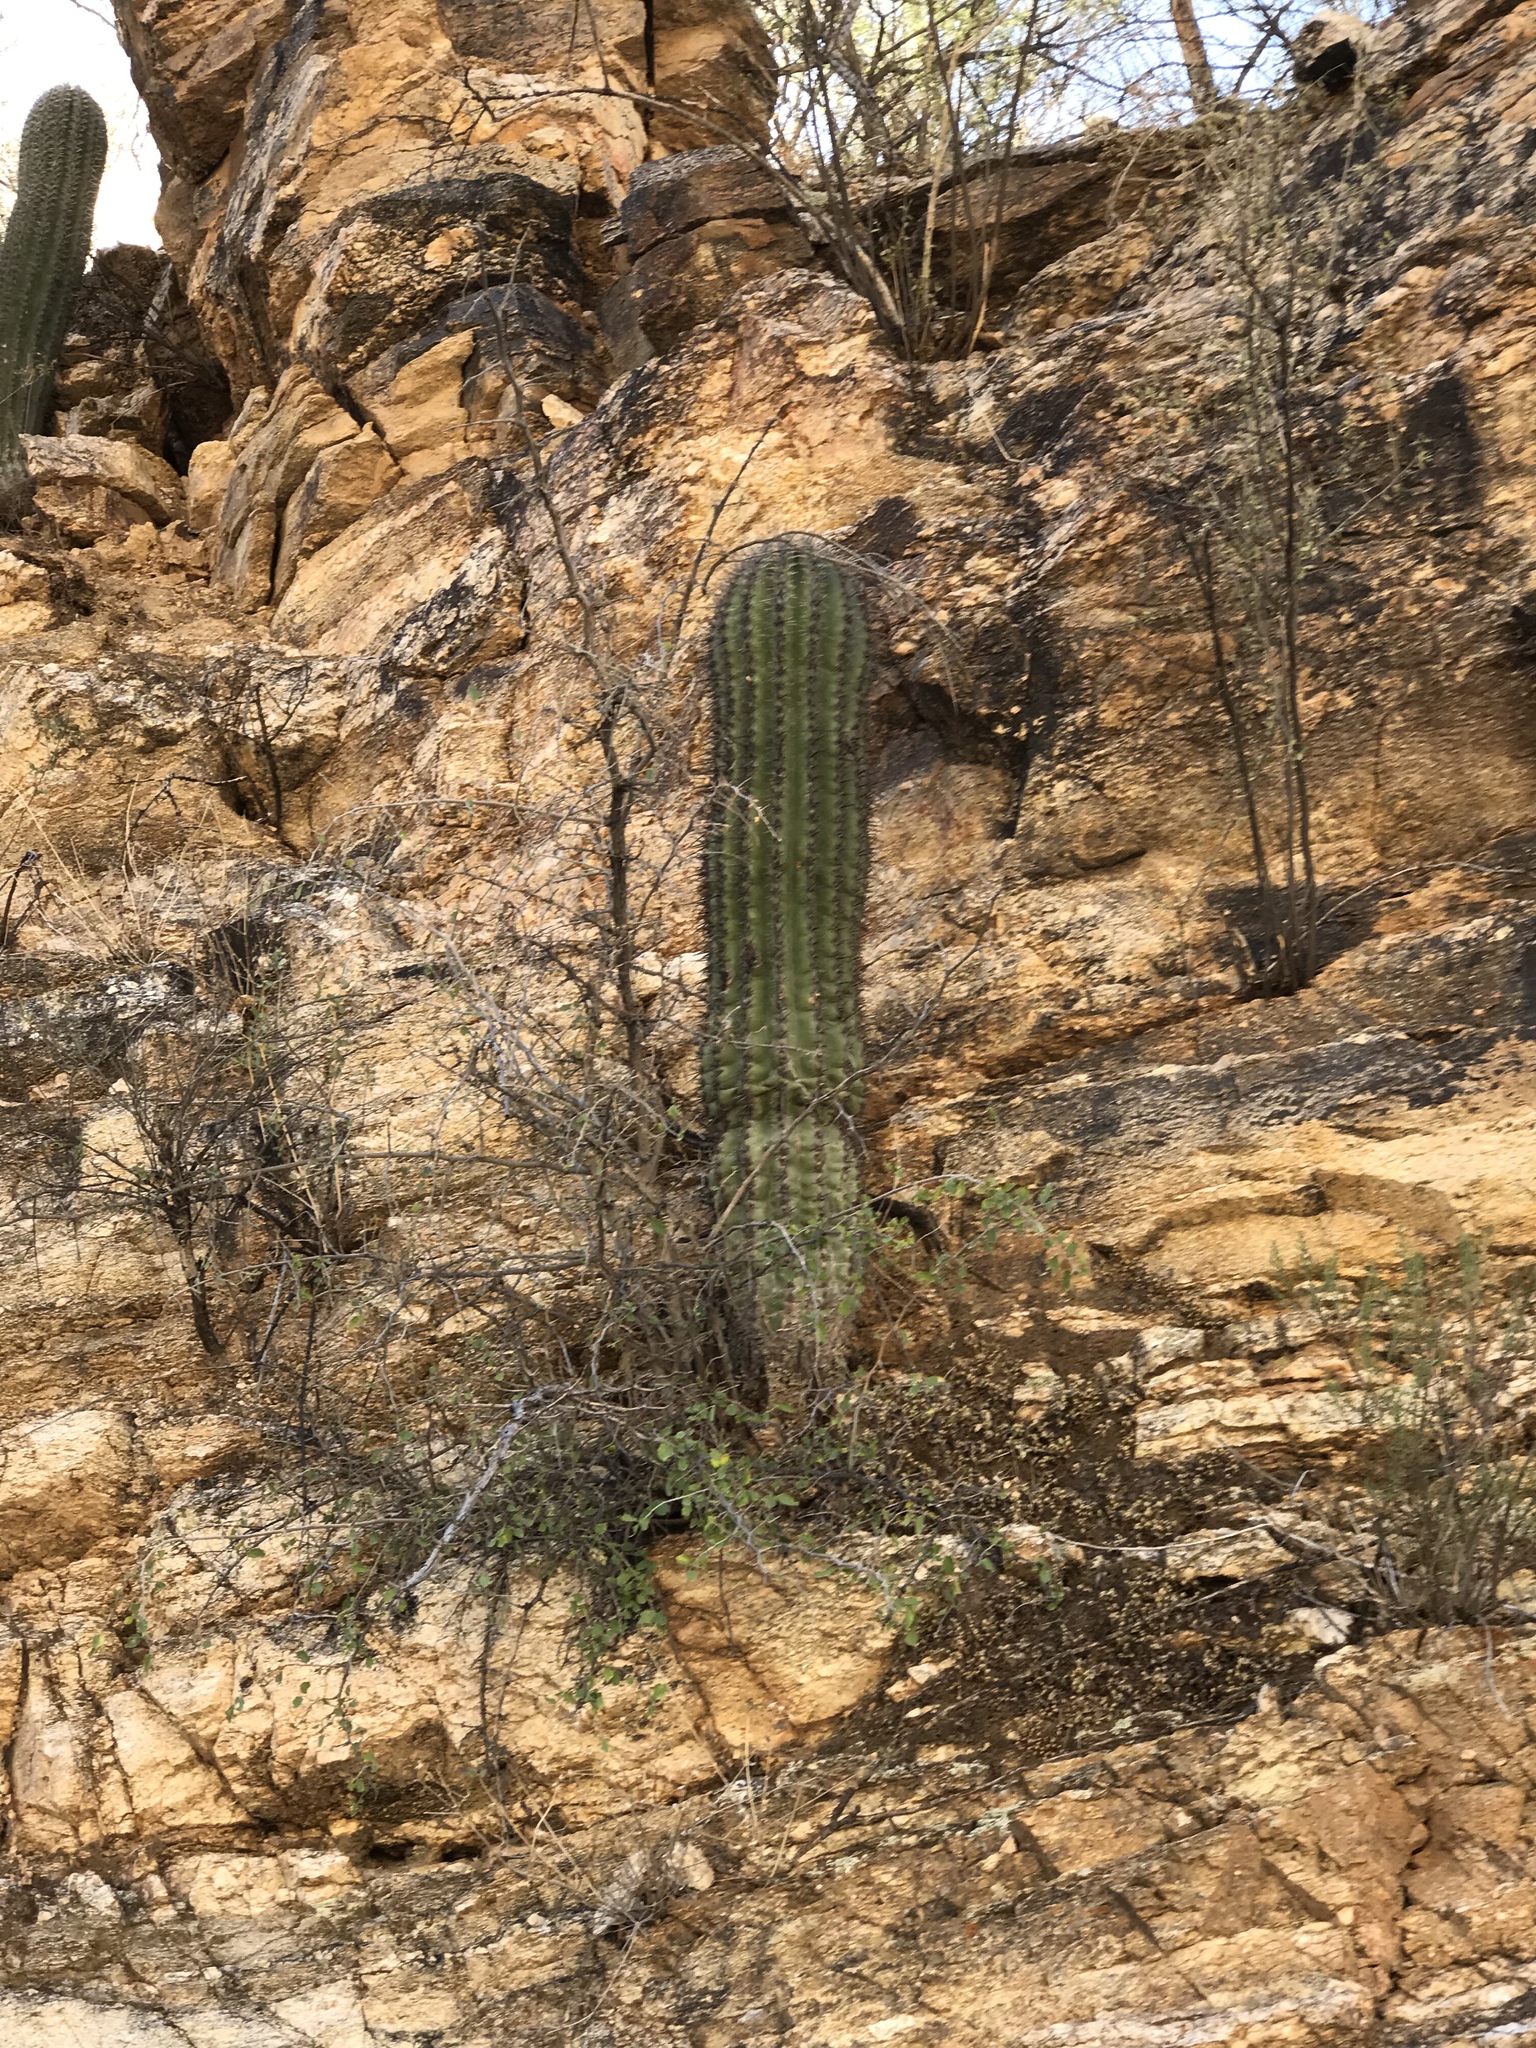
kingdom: Plantae
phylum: Tracheophyta
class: Magnoliopsida
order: Caryophyllales
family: Cactaceae
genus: Carnegiea
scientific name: Carnegiea gigantea
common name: Saguaro
